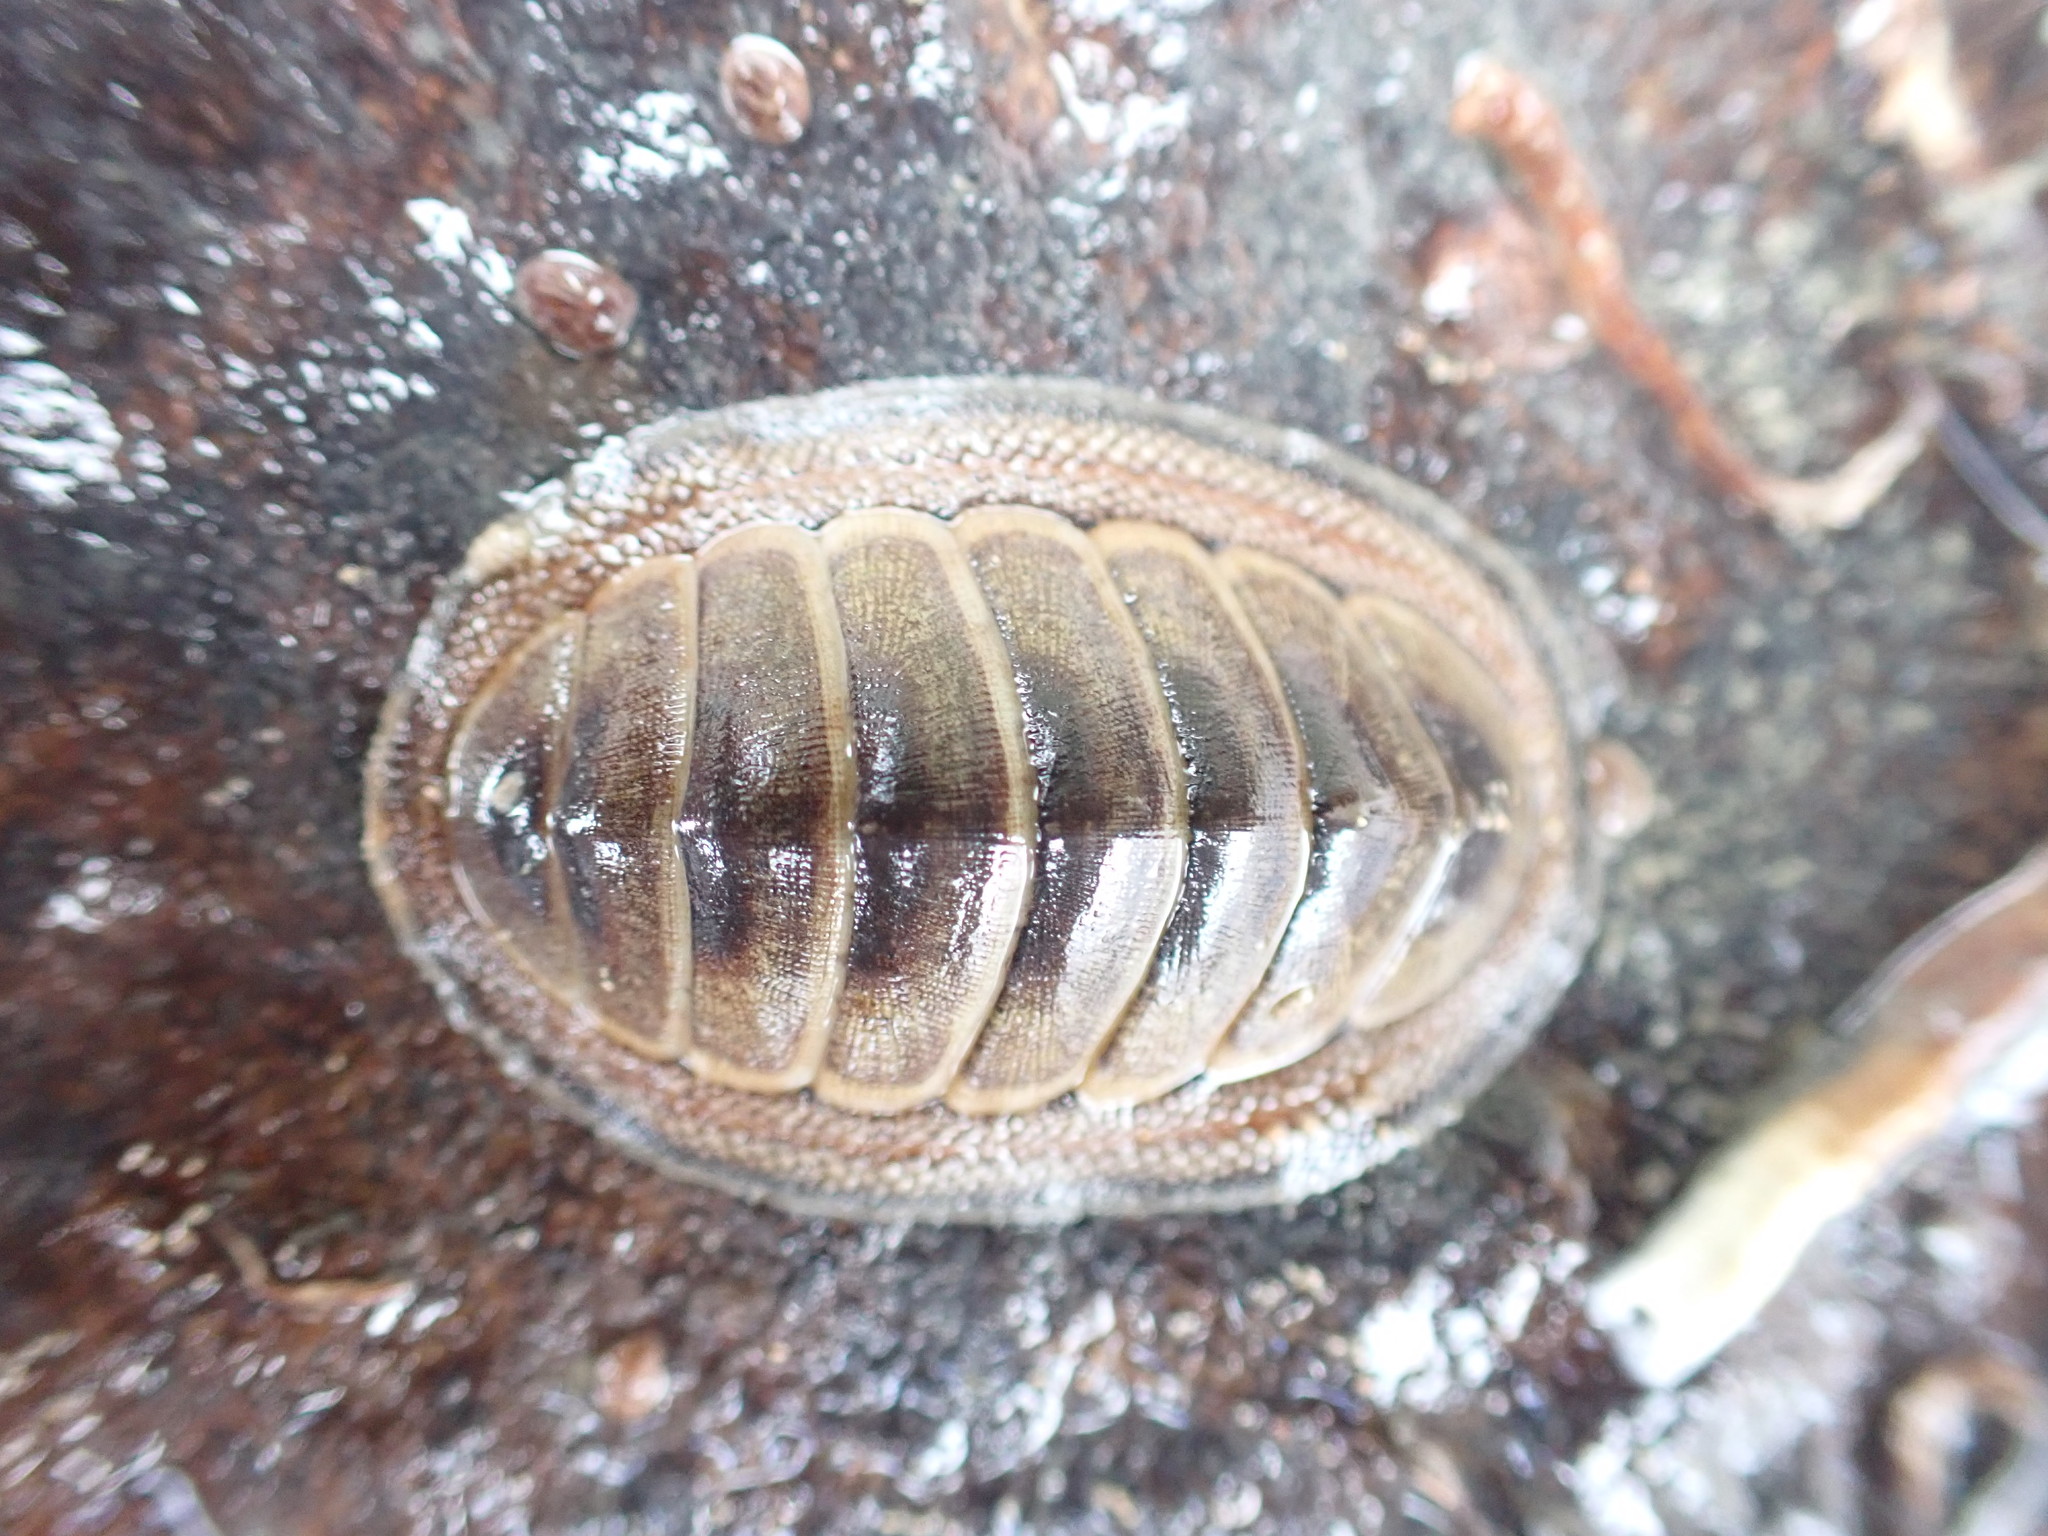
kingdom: Animalia
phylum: Mollusca
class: Polyplacophora
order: Chitonida
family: Chitonidae
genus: Chiton
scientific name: Chiton glaucus
